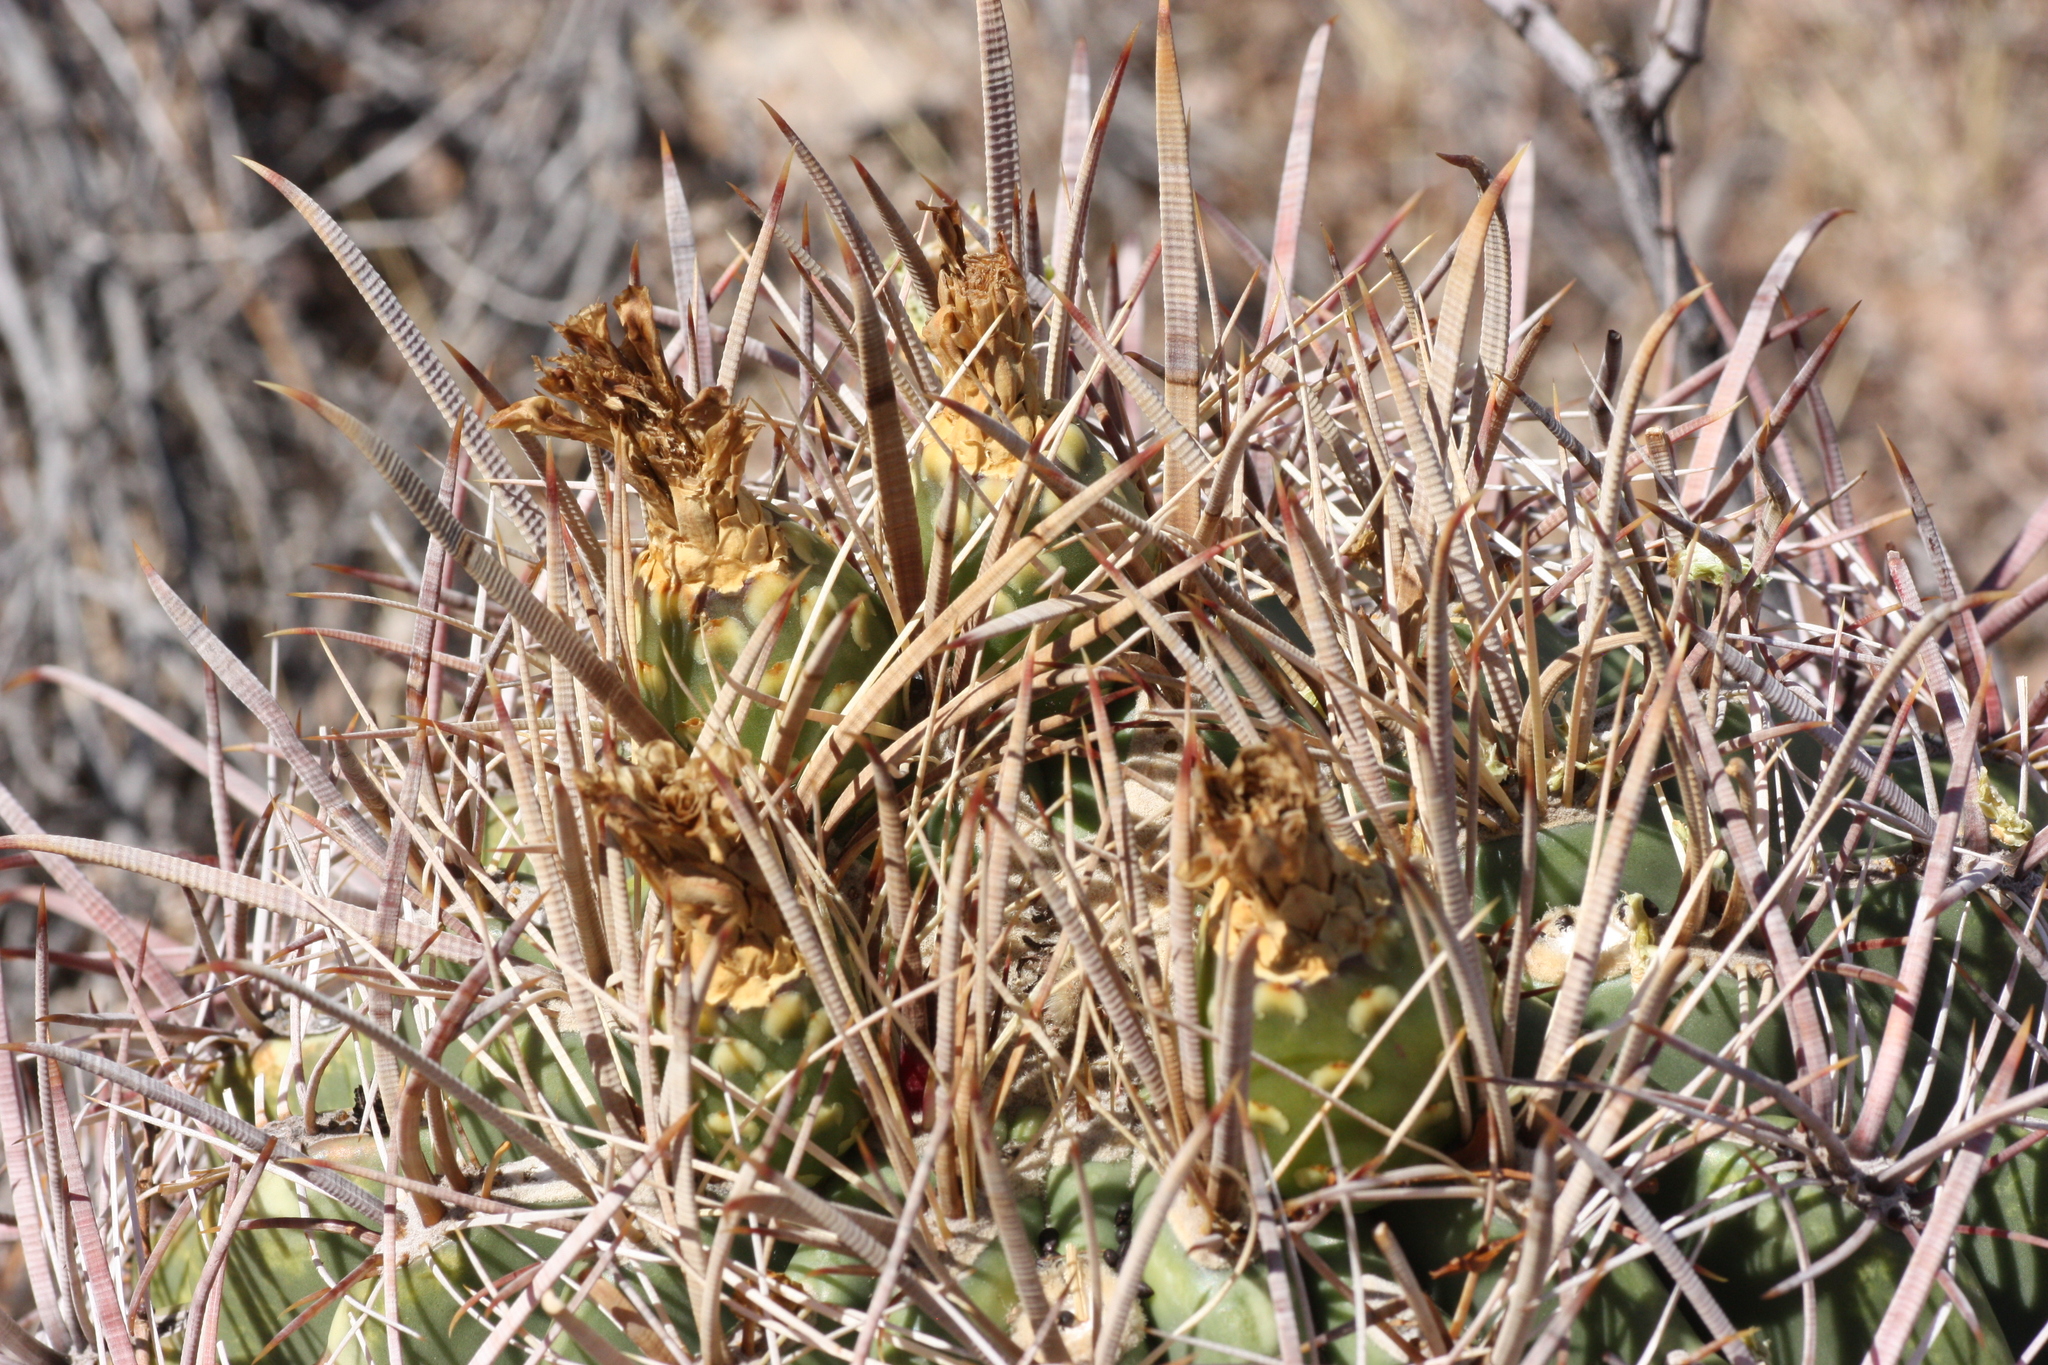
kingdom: Plantae
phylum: Tracheophyta
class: Magnoliopsida
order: Caryophyllales
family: Cactaceae
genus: Ferocactus
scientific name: Ferocactus cylindraceus
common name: California barrel cactus
